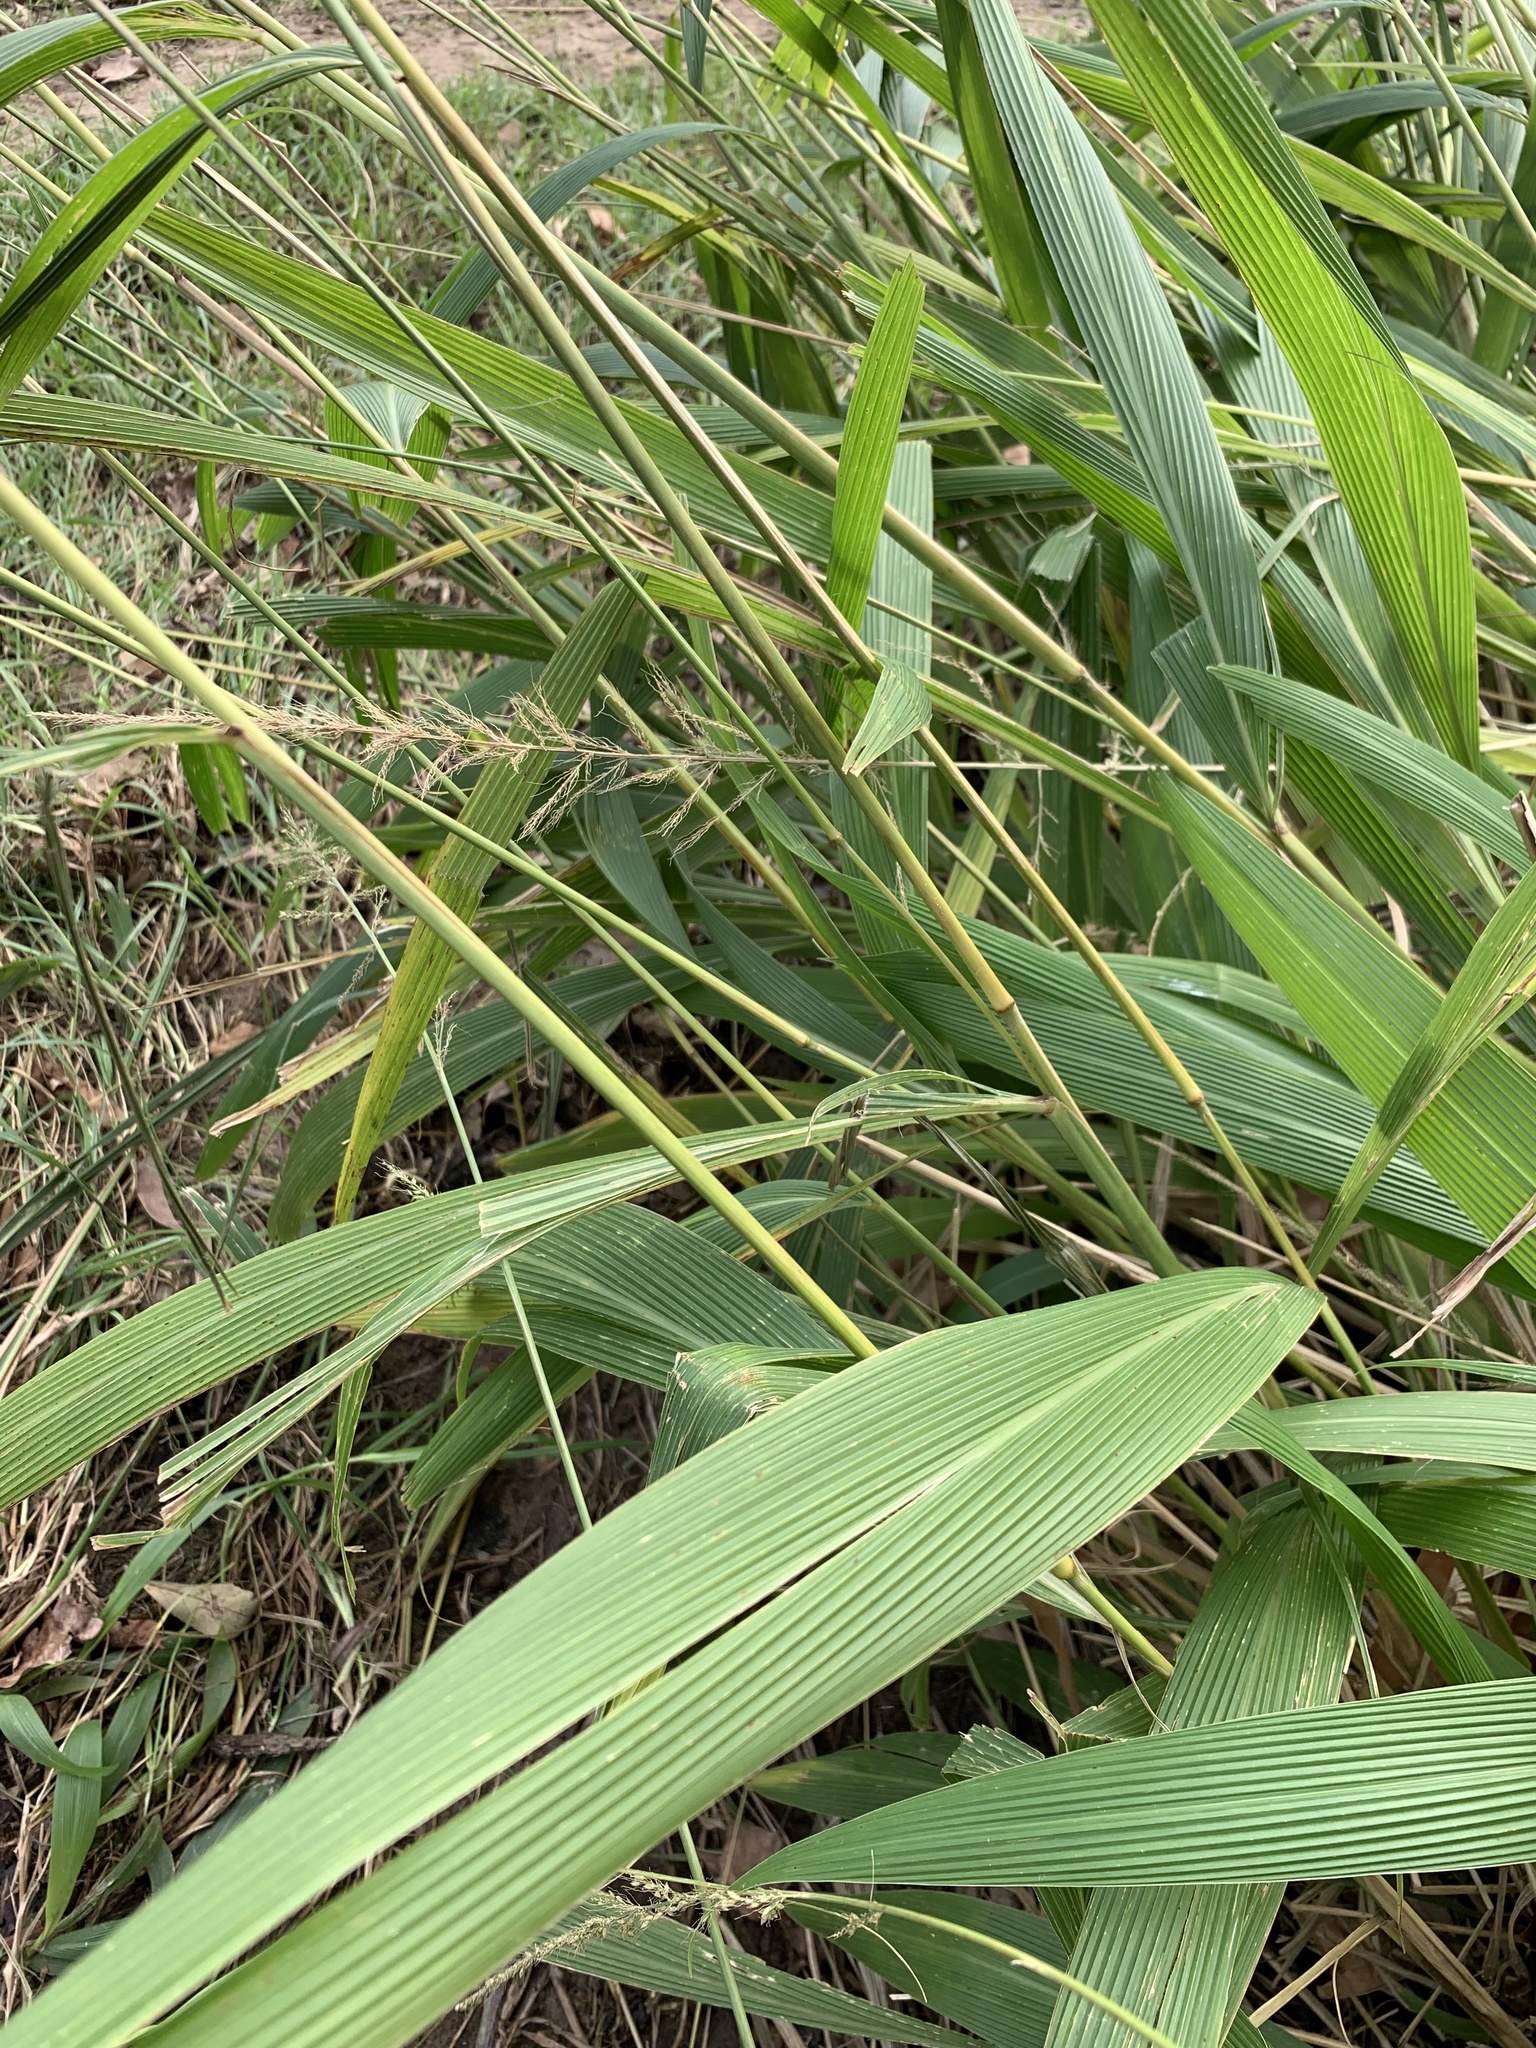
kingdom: Plantae
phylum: Tracheophyta
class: Liliopsida
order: Poales
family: Poaceae
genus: Setaria
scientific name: Setaria megaphylla
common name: Bigleaf bristlegrass
